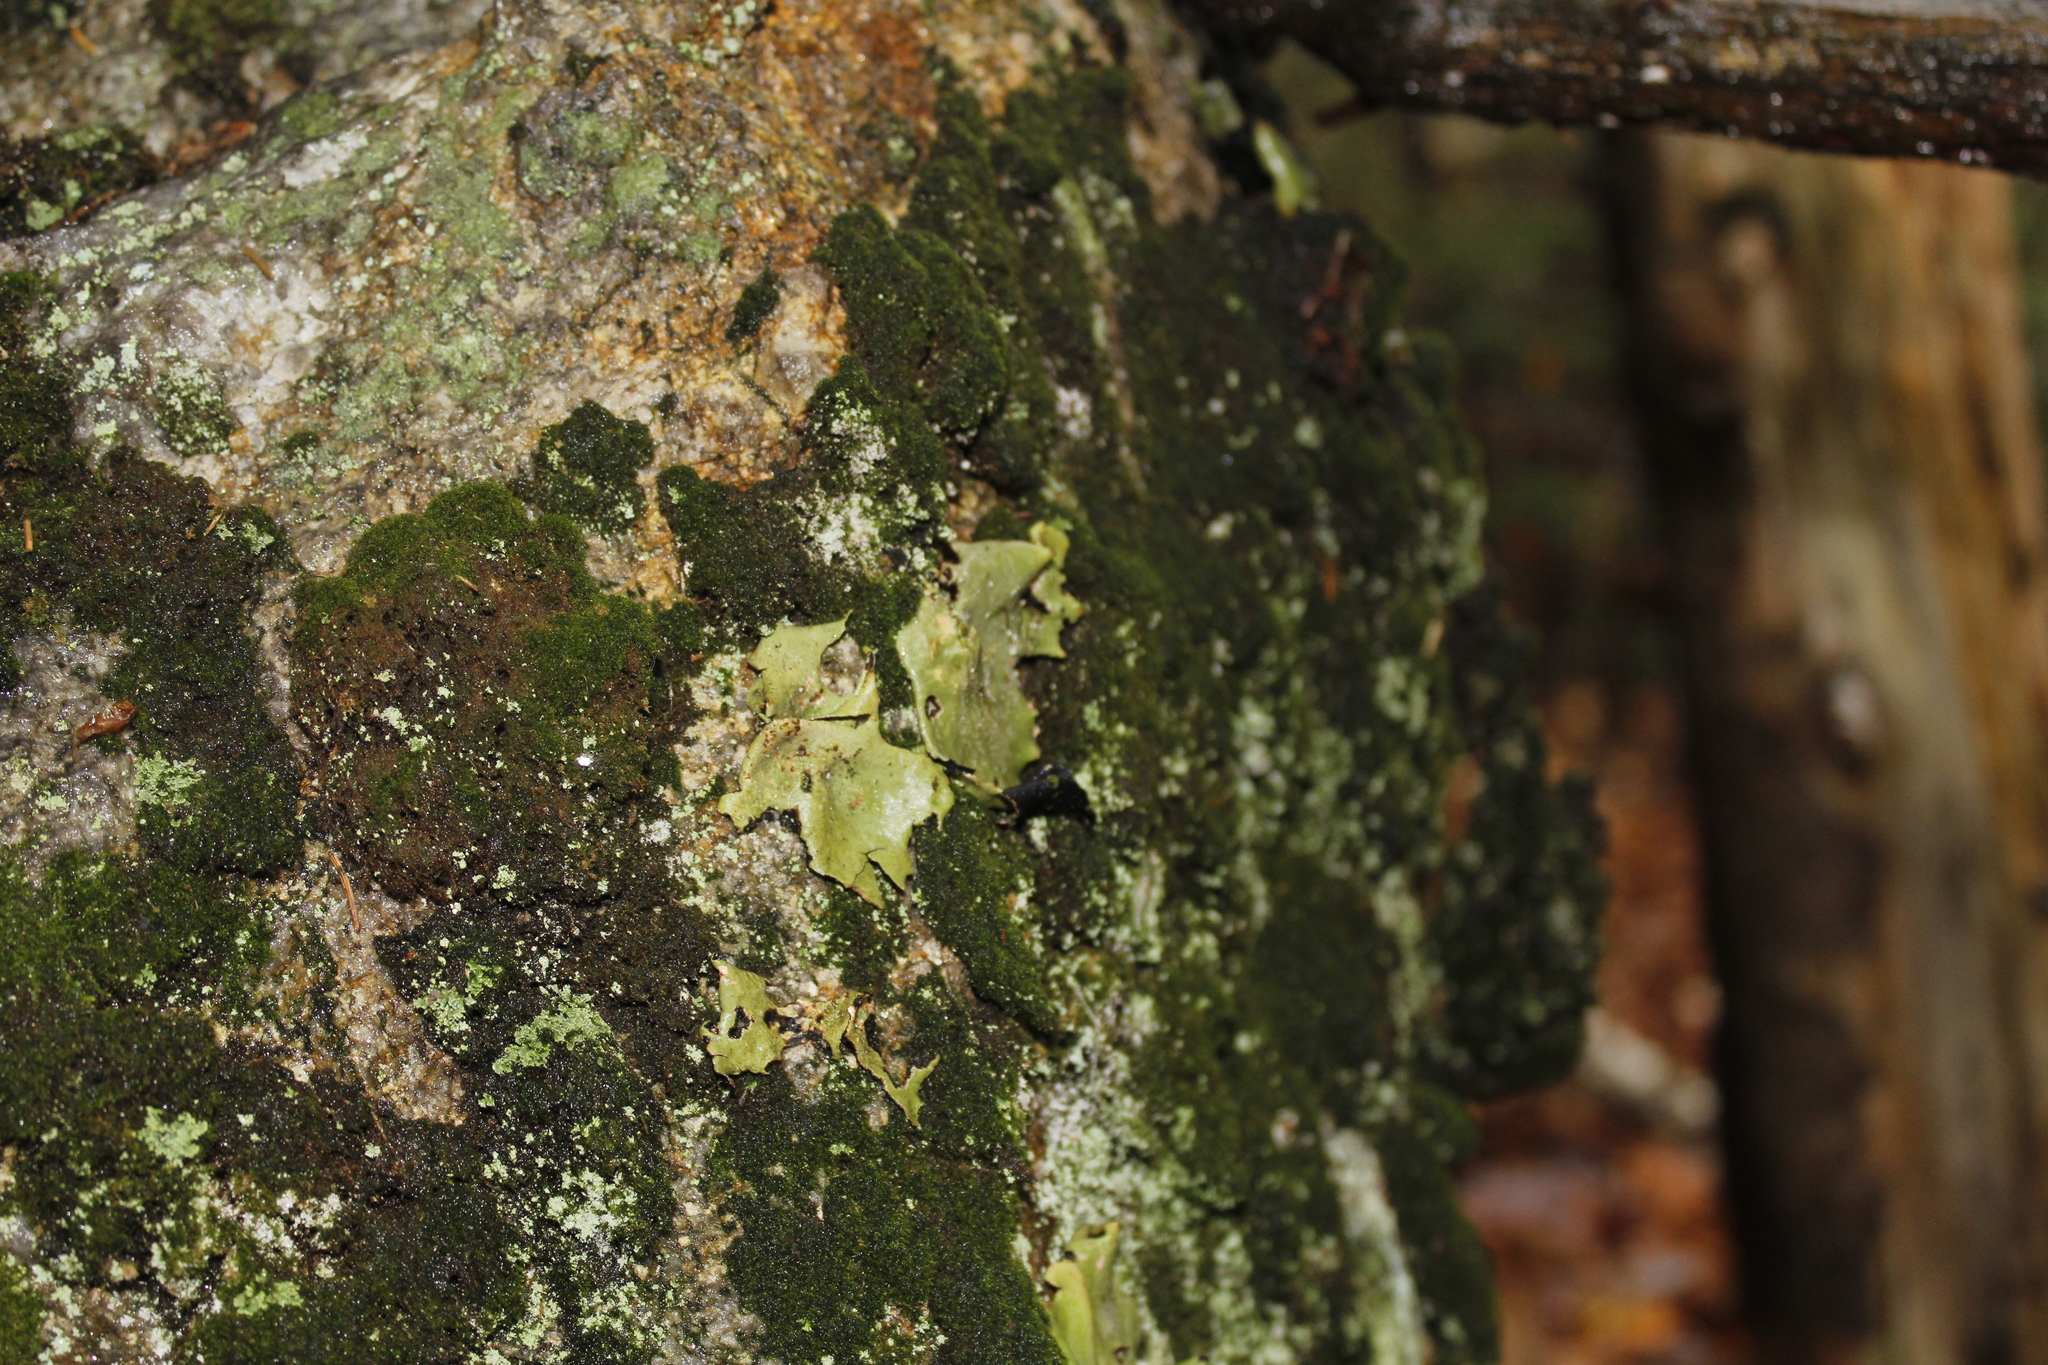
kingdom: Fungi
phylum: Ascomycota
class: Lecanoromycetes
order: Umbilicariales
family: Umbilicariaceae
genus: Umbilicaria
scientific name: Umbilicaria mammulata
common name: Smooth rock tripe
